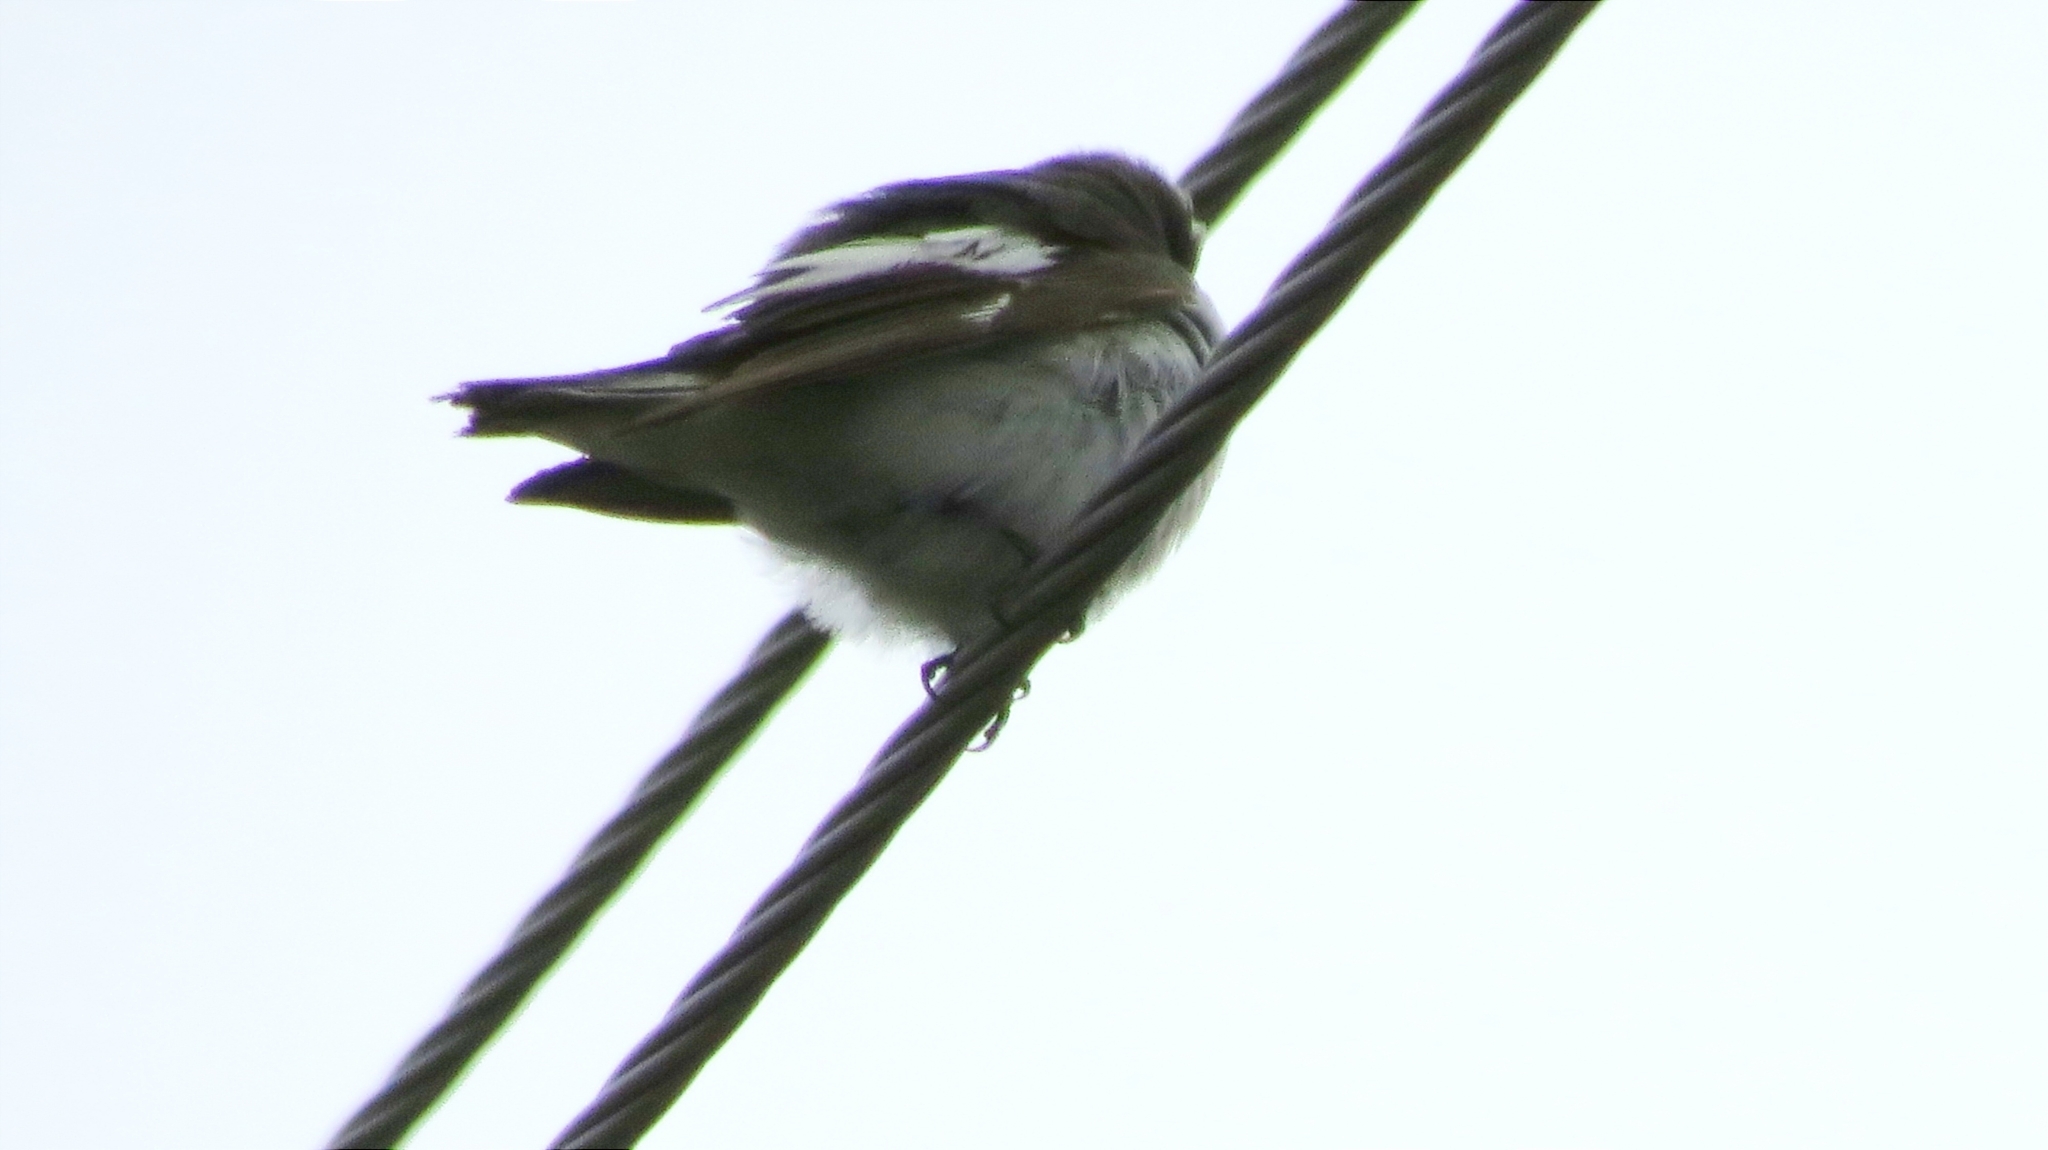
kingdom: Animalia
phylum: Chordata
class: Aves
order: Passeriformes
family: Muscicapidae
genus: Ficedula
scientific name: Ficedula hypoleuca
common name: European pied flycatcher
